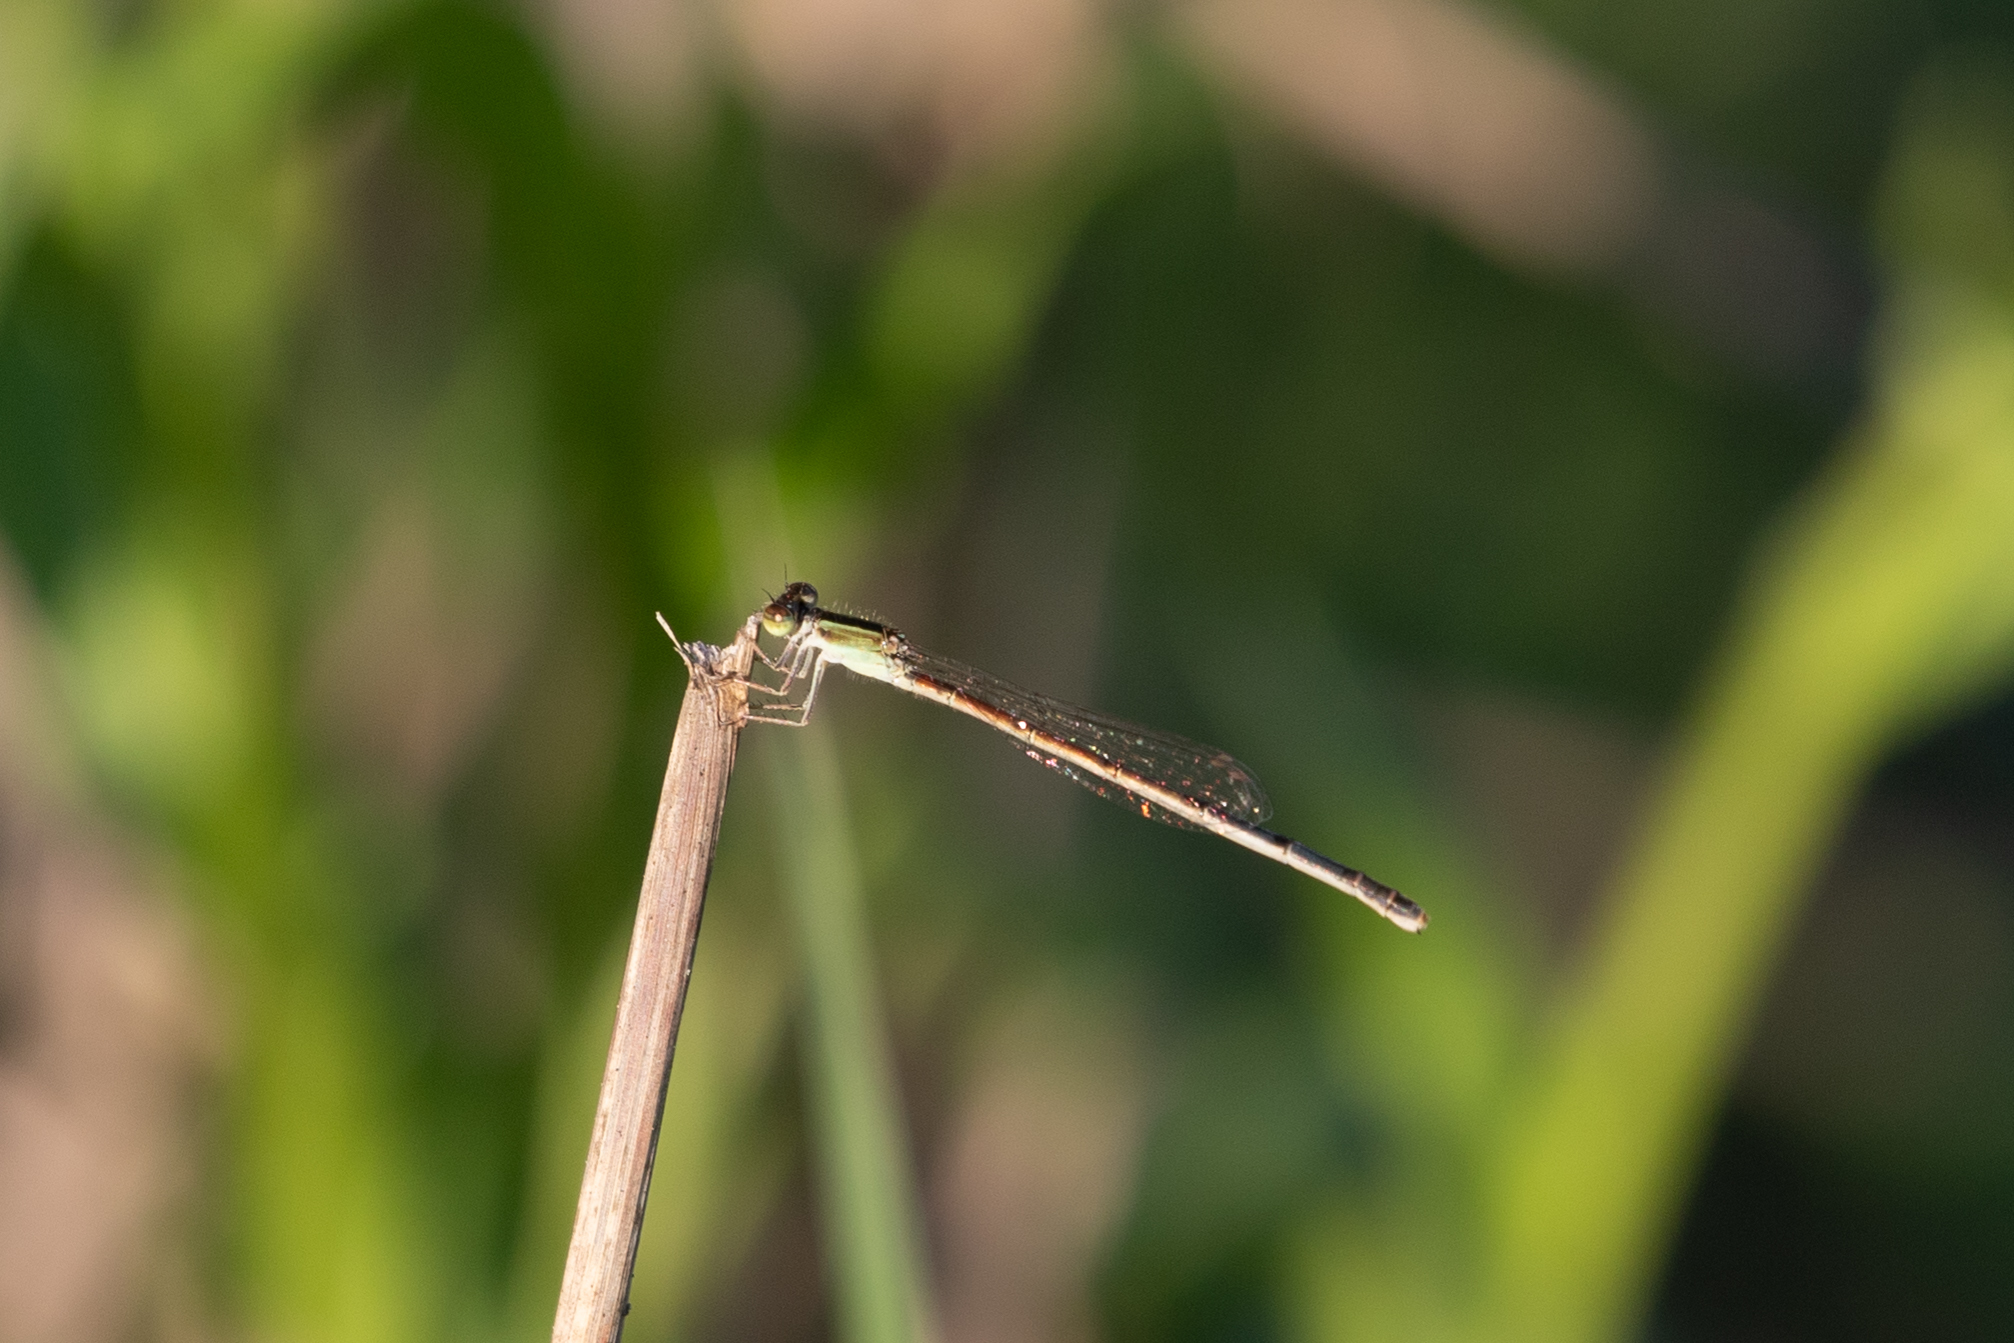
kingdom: Animalia
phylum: Arthropoda
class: Insecta
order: Odonata
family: Coenagrionidae
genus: Ischnura
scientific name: Ischnura hastata
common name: Citrine forktail
